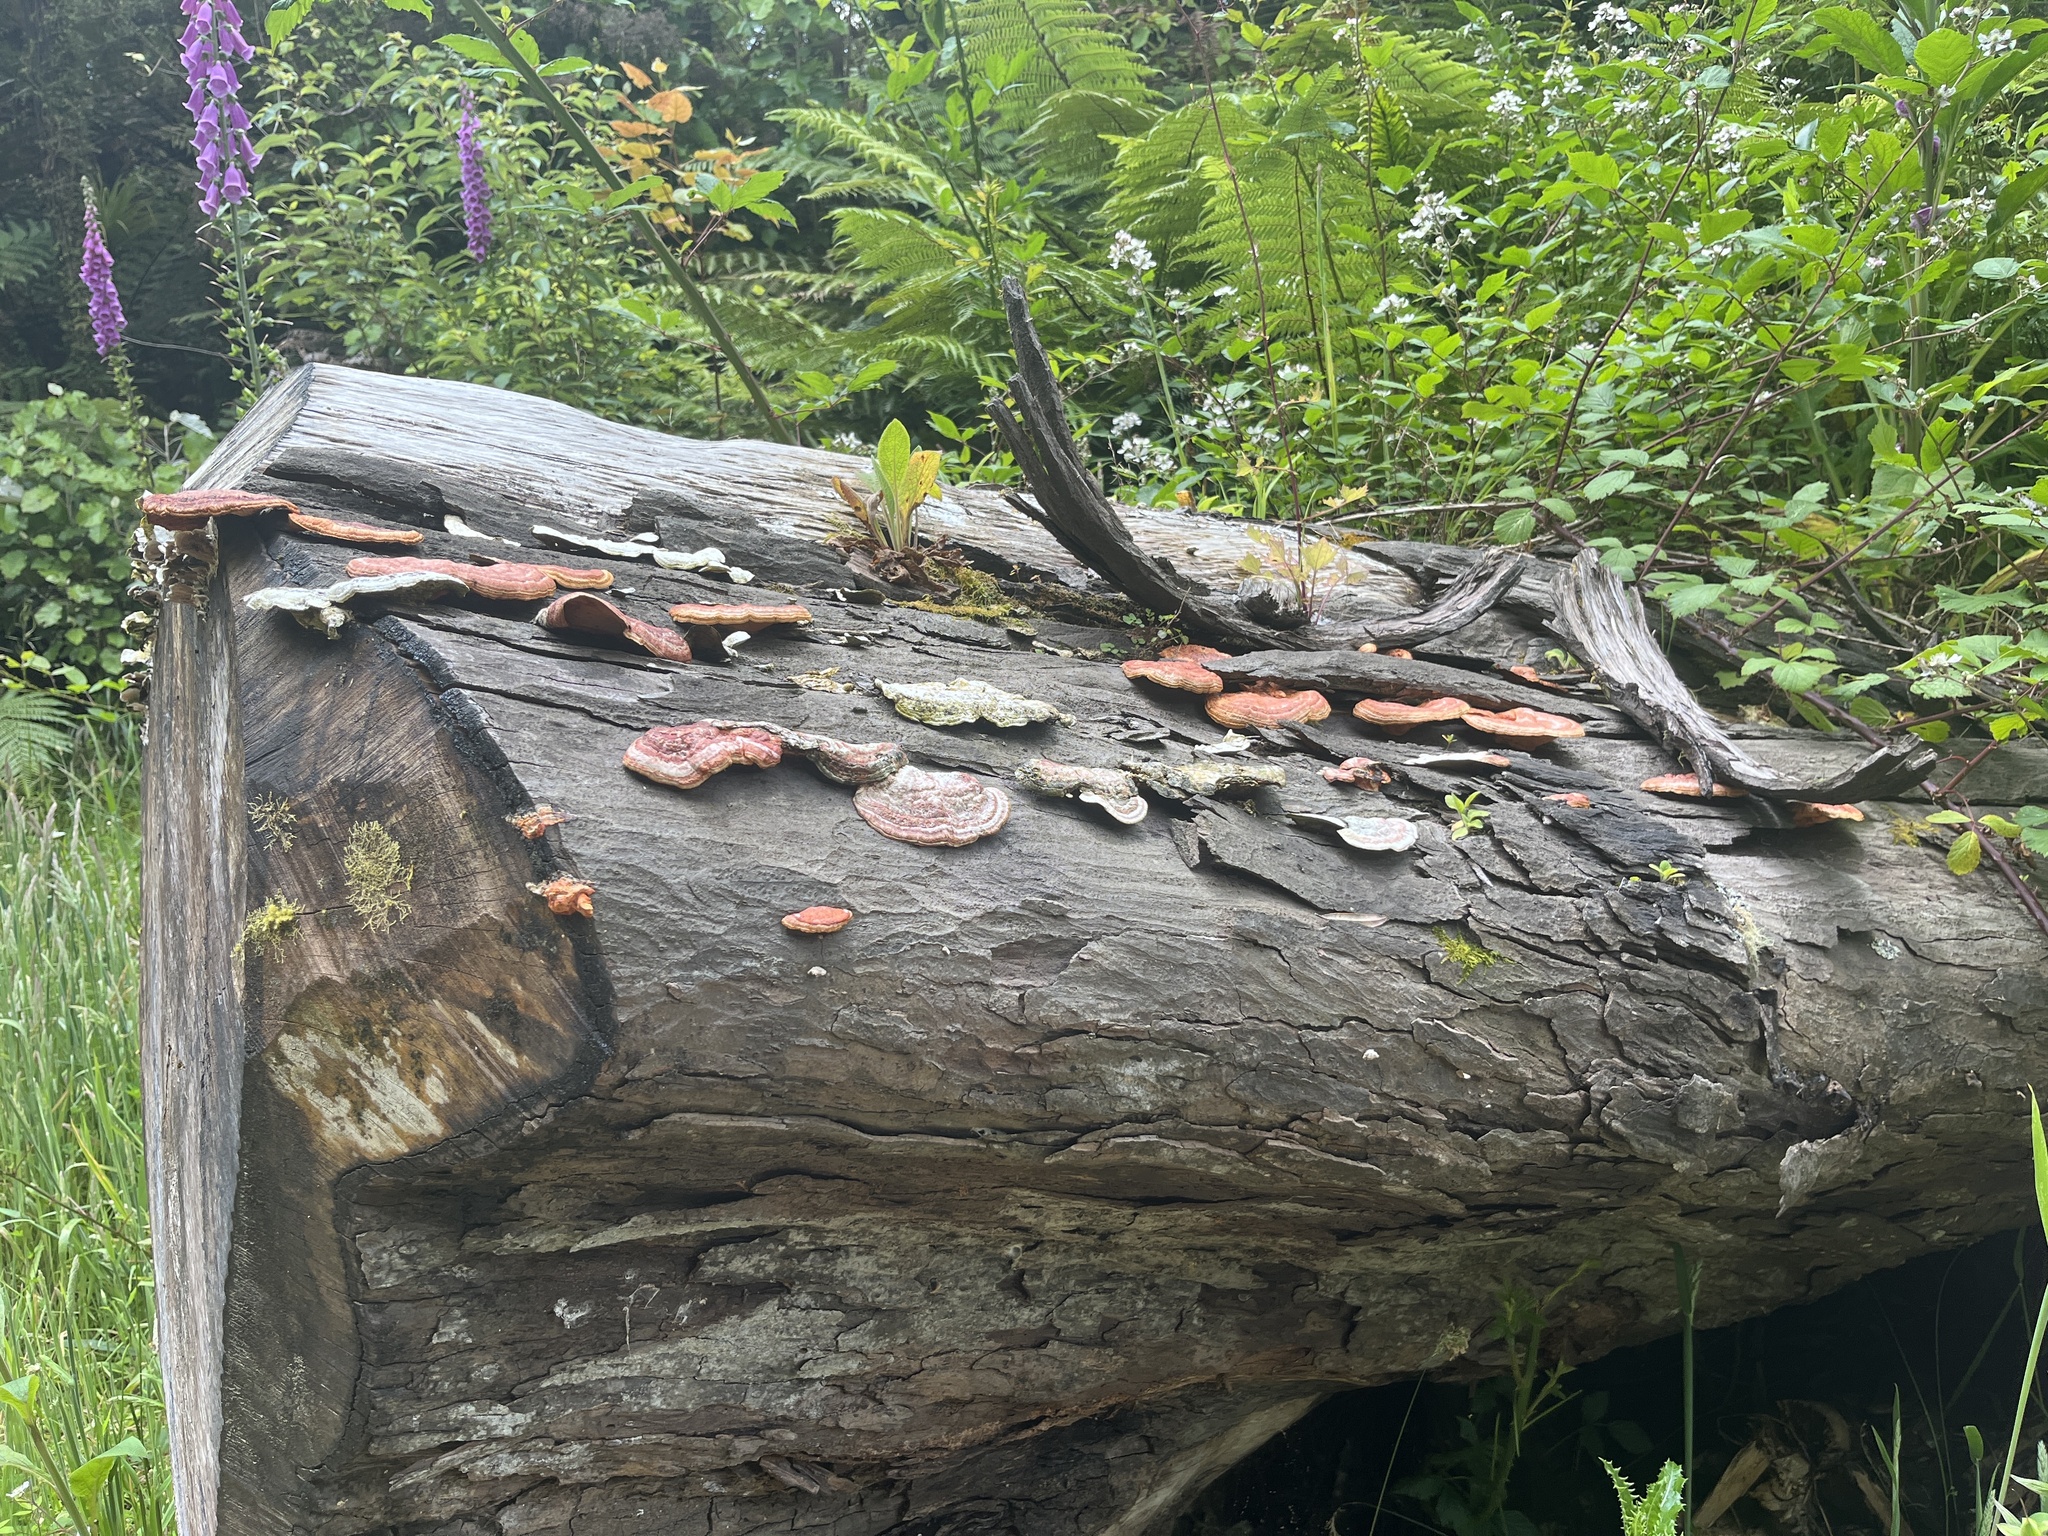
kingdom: Fungi
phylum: Basidiomycota
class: Agaricomycetes
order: Polyporales
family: Polyporaceae
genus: Trametes
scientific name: Trametes coccinea
